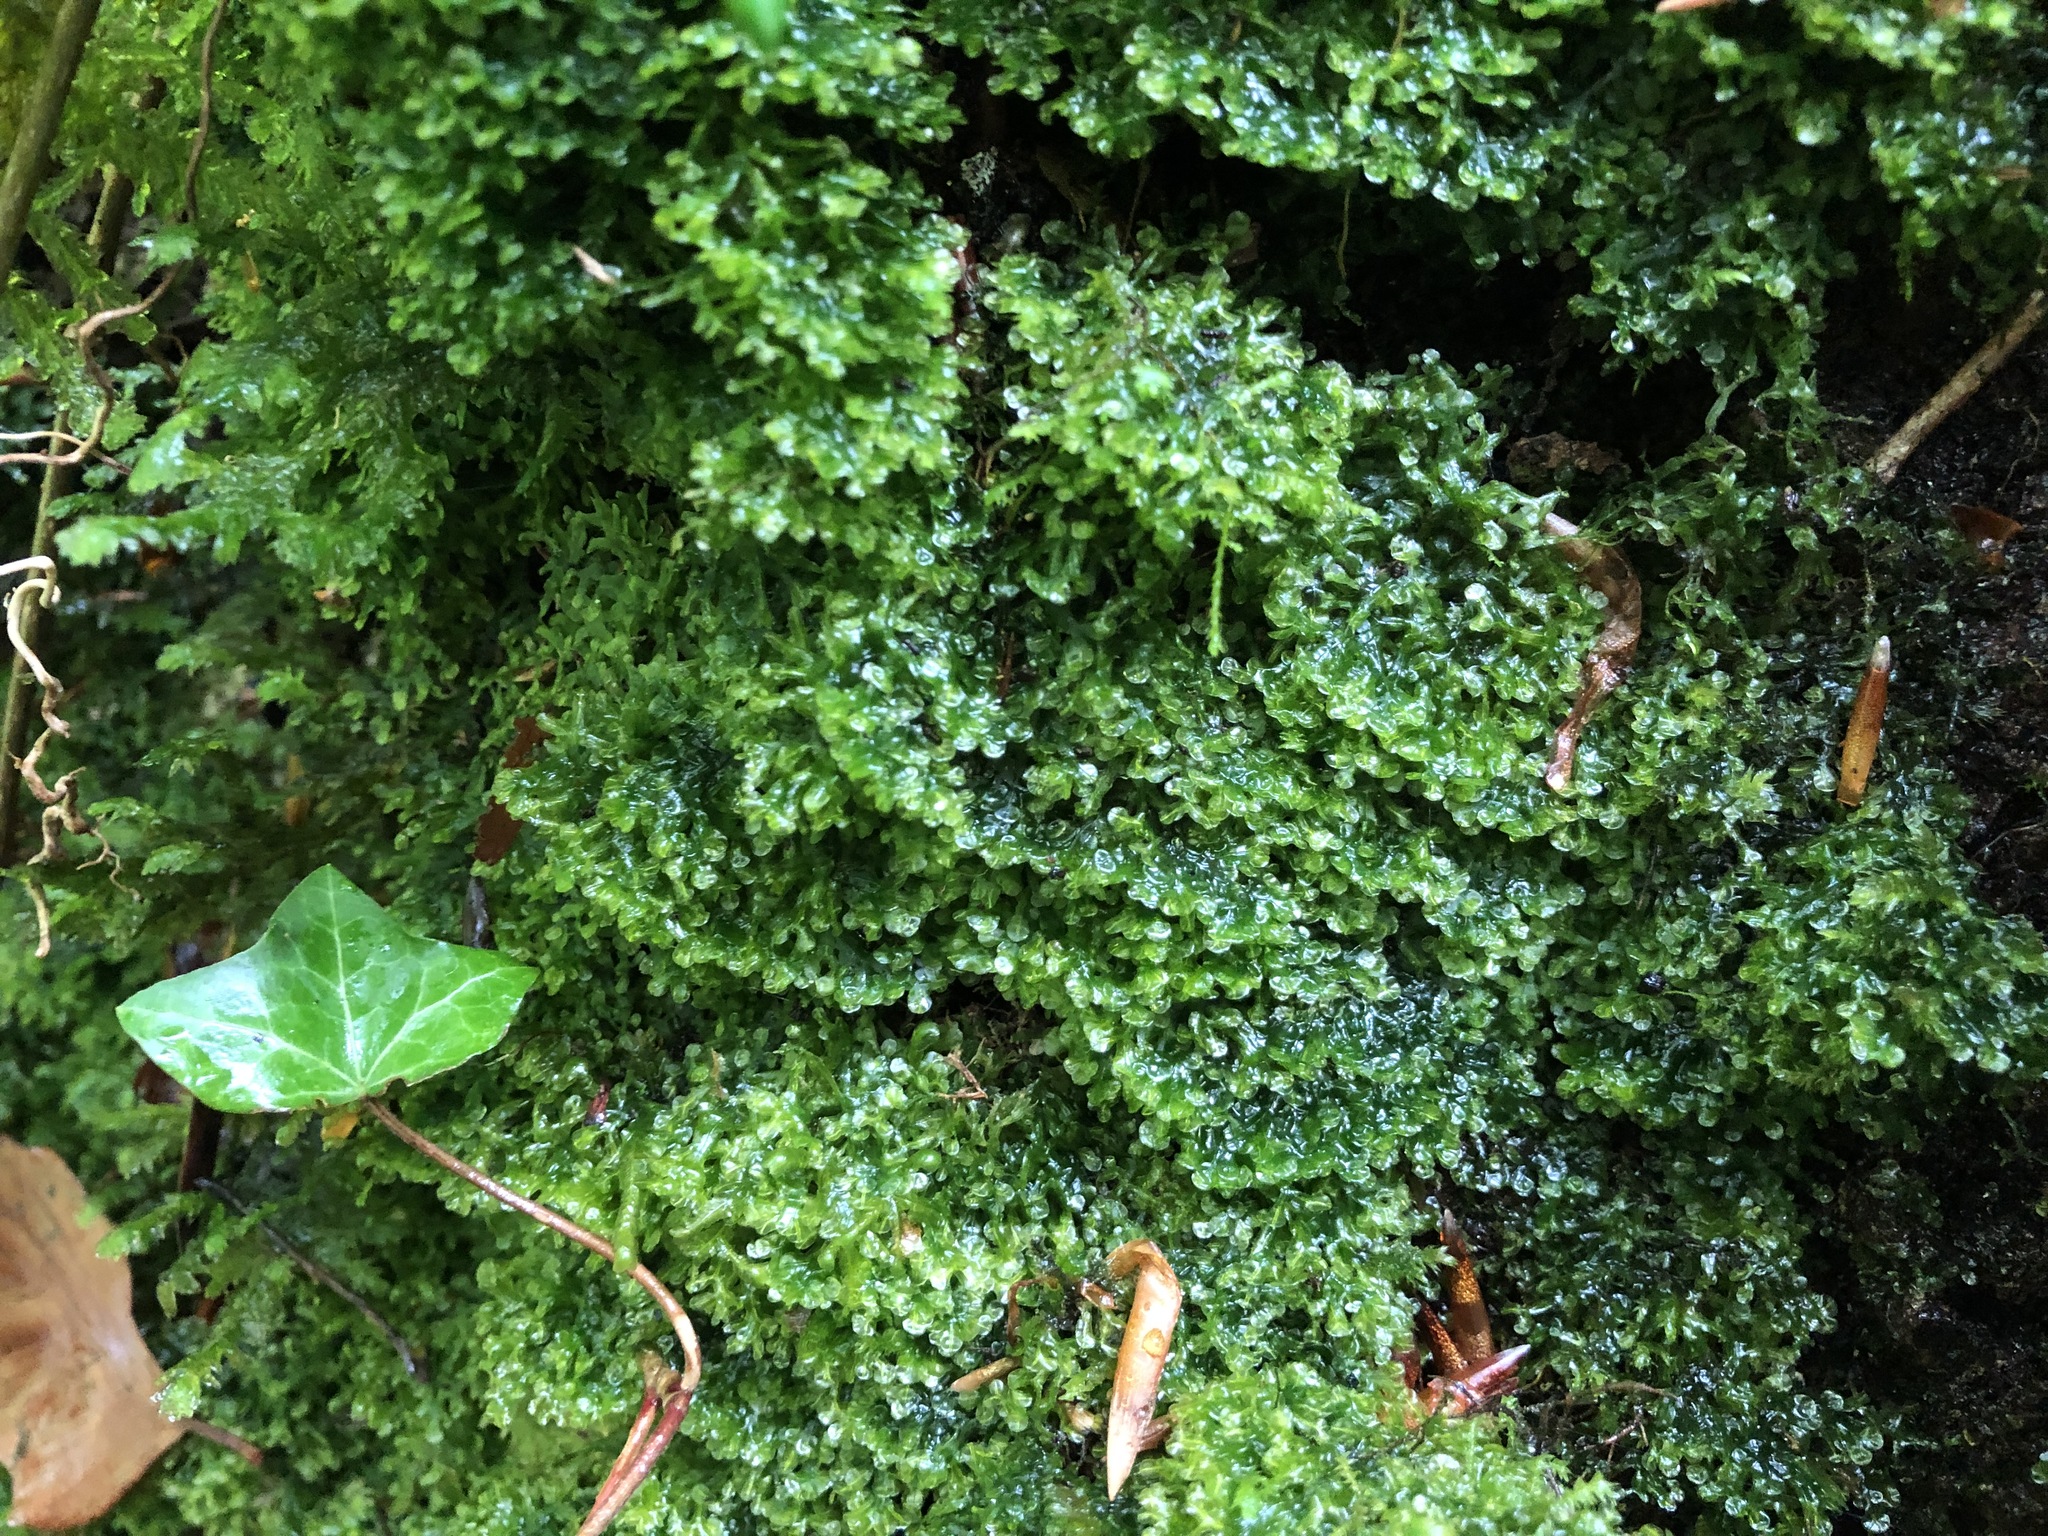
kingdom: Plantae
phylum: Marchantiophyta
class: Jungermanniopsida
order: Metzgeriales
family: Metzgeriaceae
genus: Metzgeria
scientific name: Metzgeria conjugata
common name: Rock veilwort
